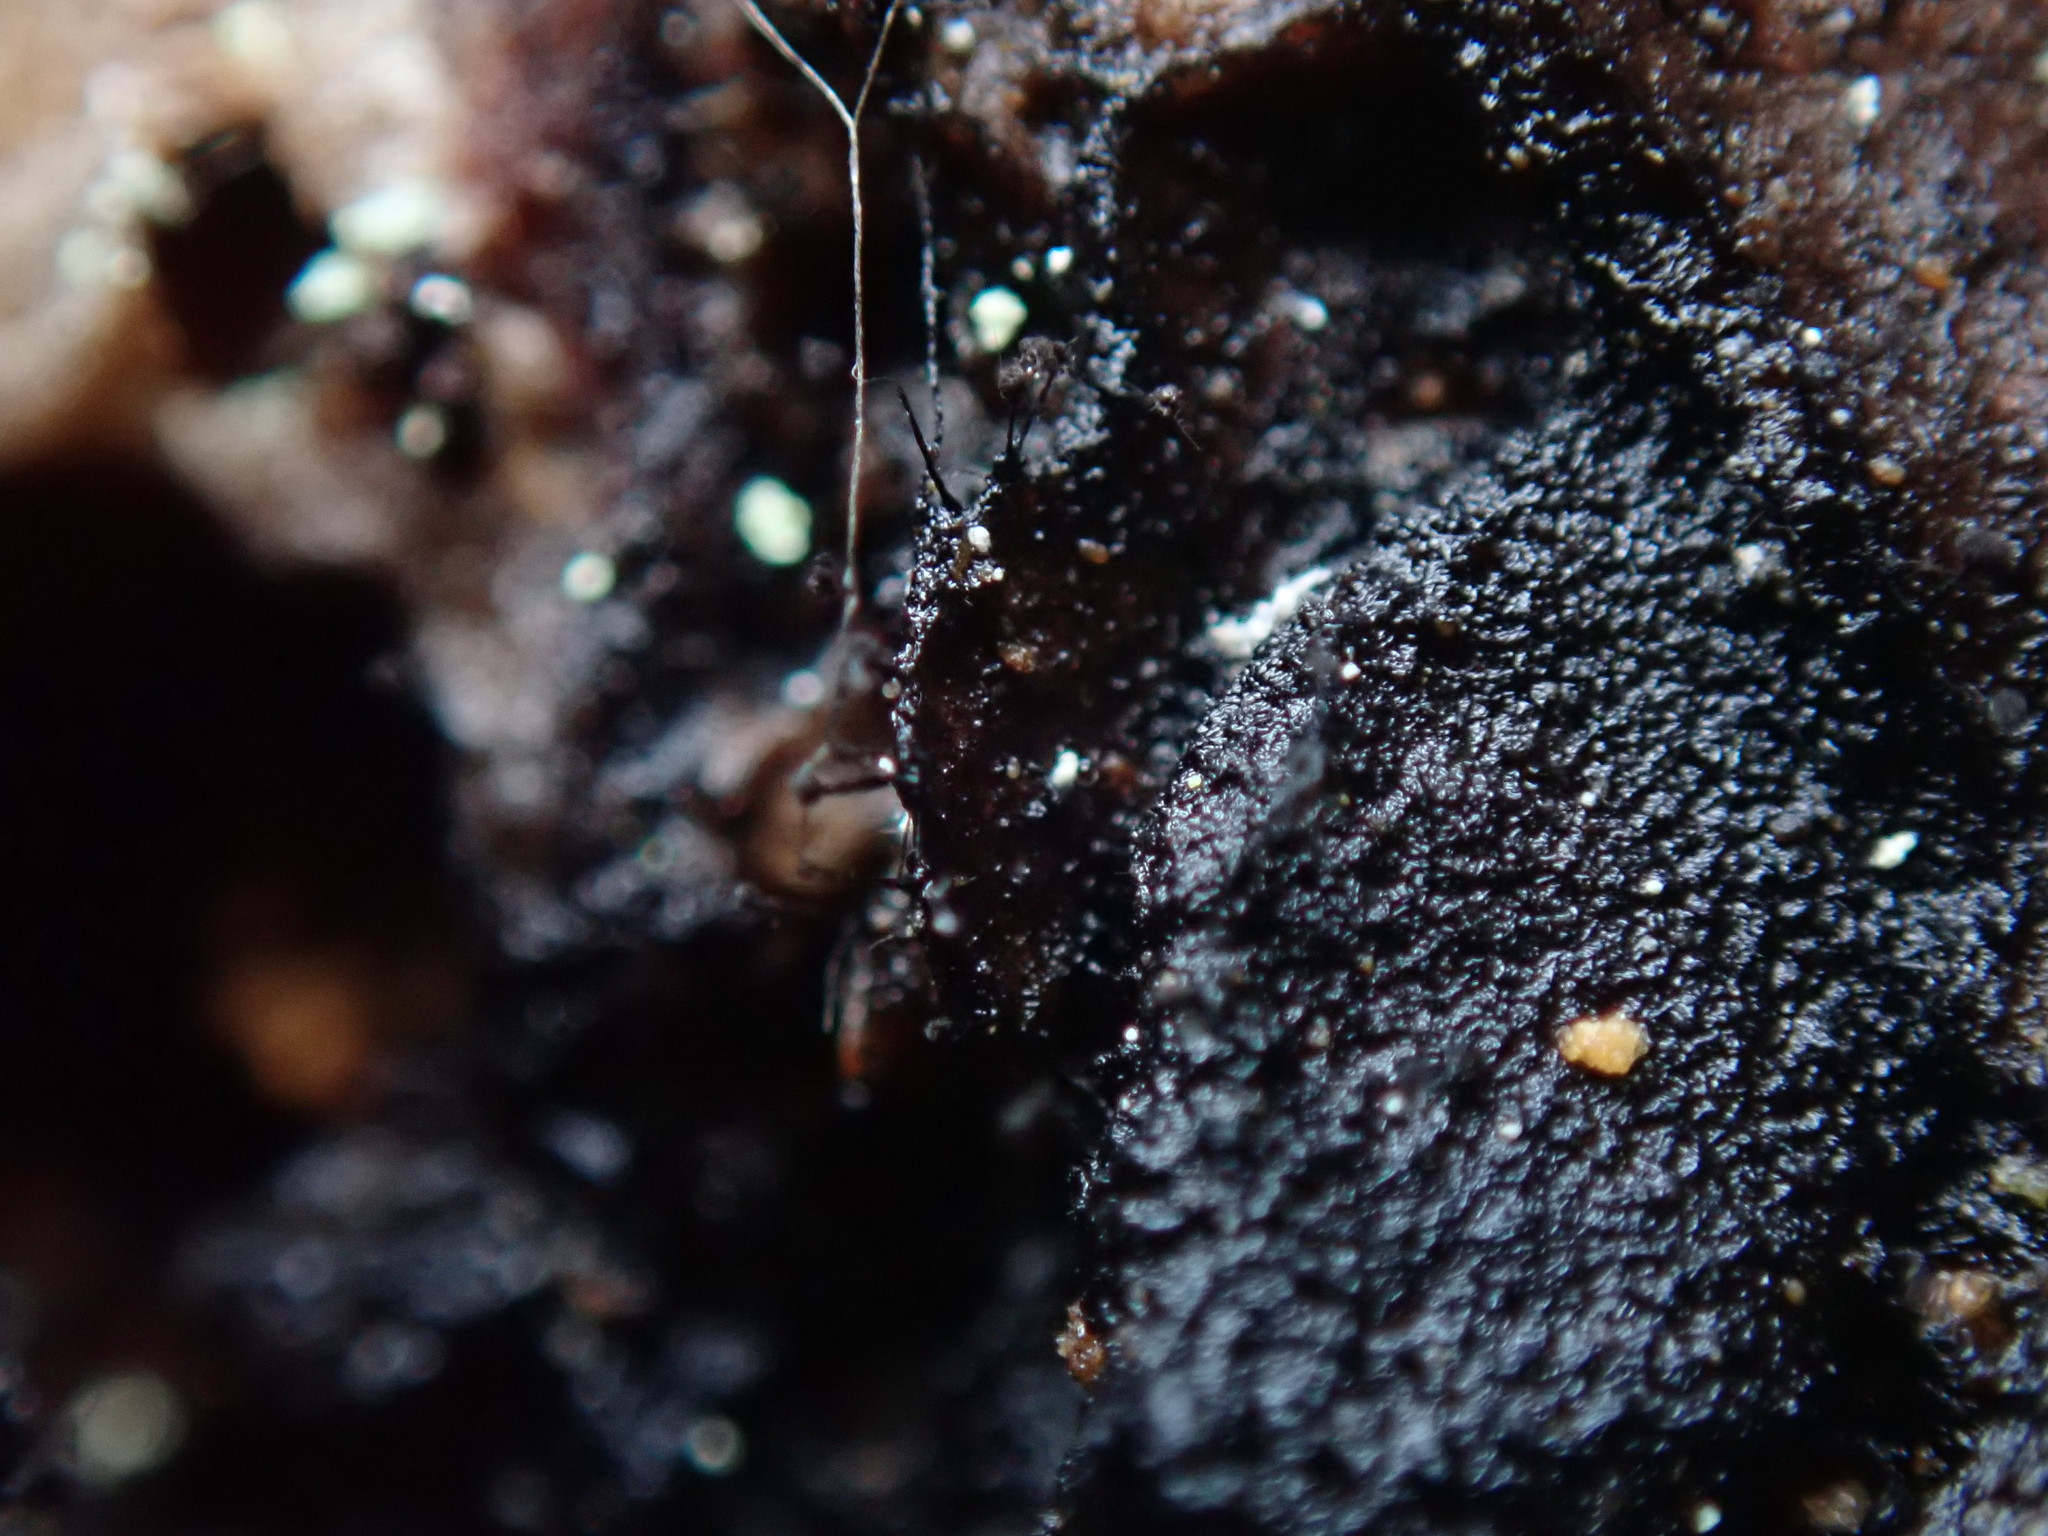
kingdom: Fungi
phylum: Ascomycota
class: Leotiomycetes
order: Helotiales
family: Amorphothecaceae
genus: Sorocybe
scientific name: Sorocybe resinae
